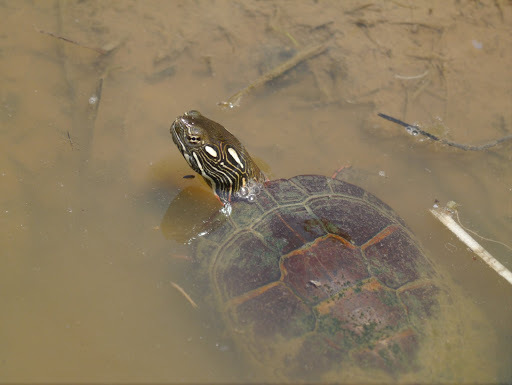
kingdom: Animalia
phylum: Chordata
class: Testudines
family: Emydidae
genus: Chrysemys
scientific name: Chrysemys picta
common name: Painted turtle
